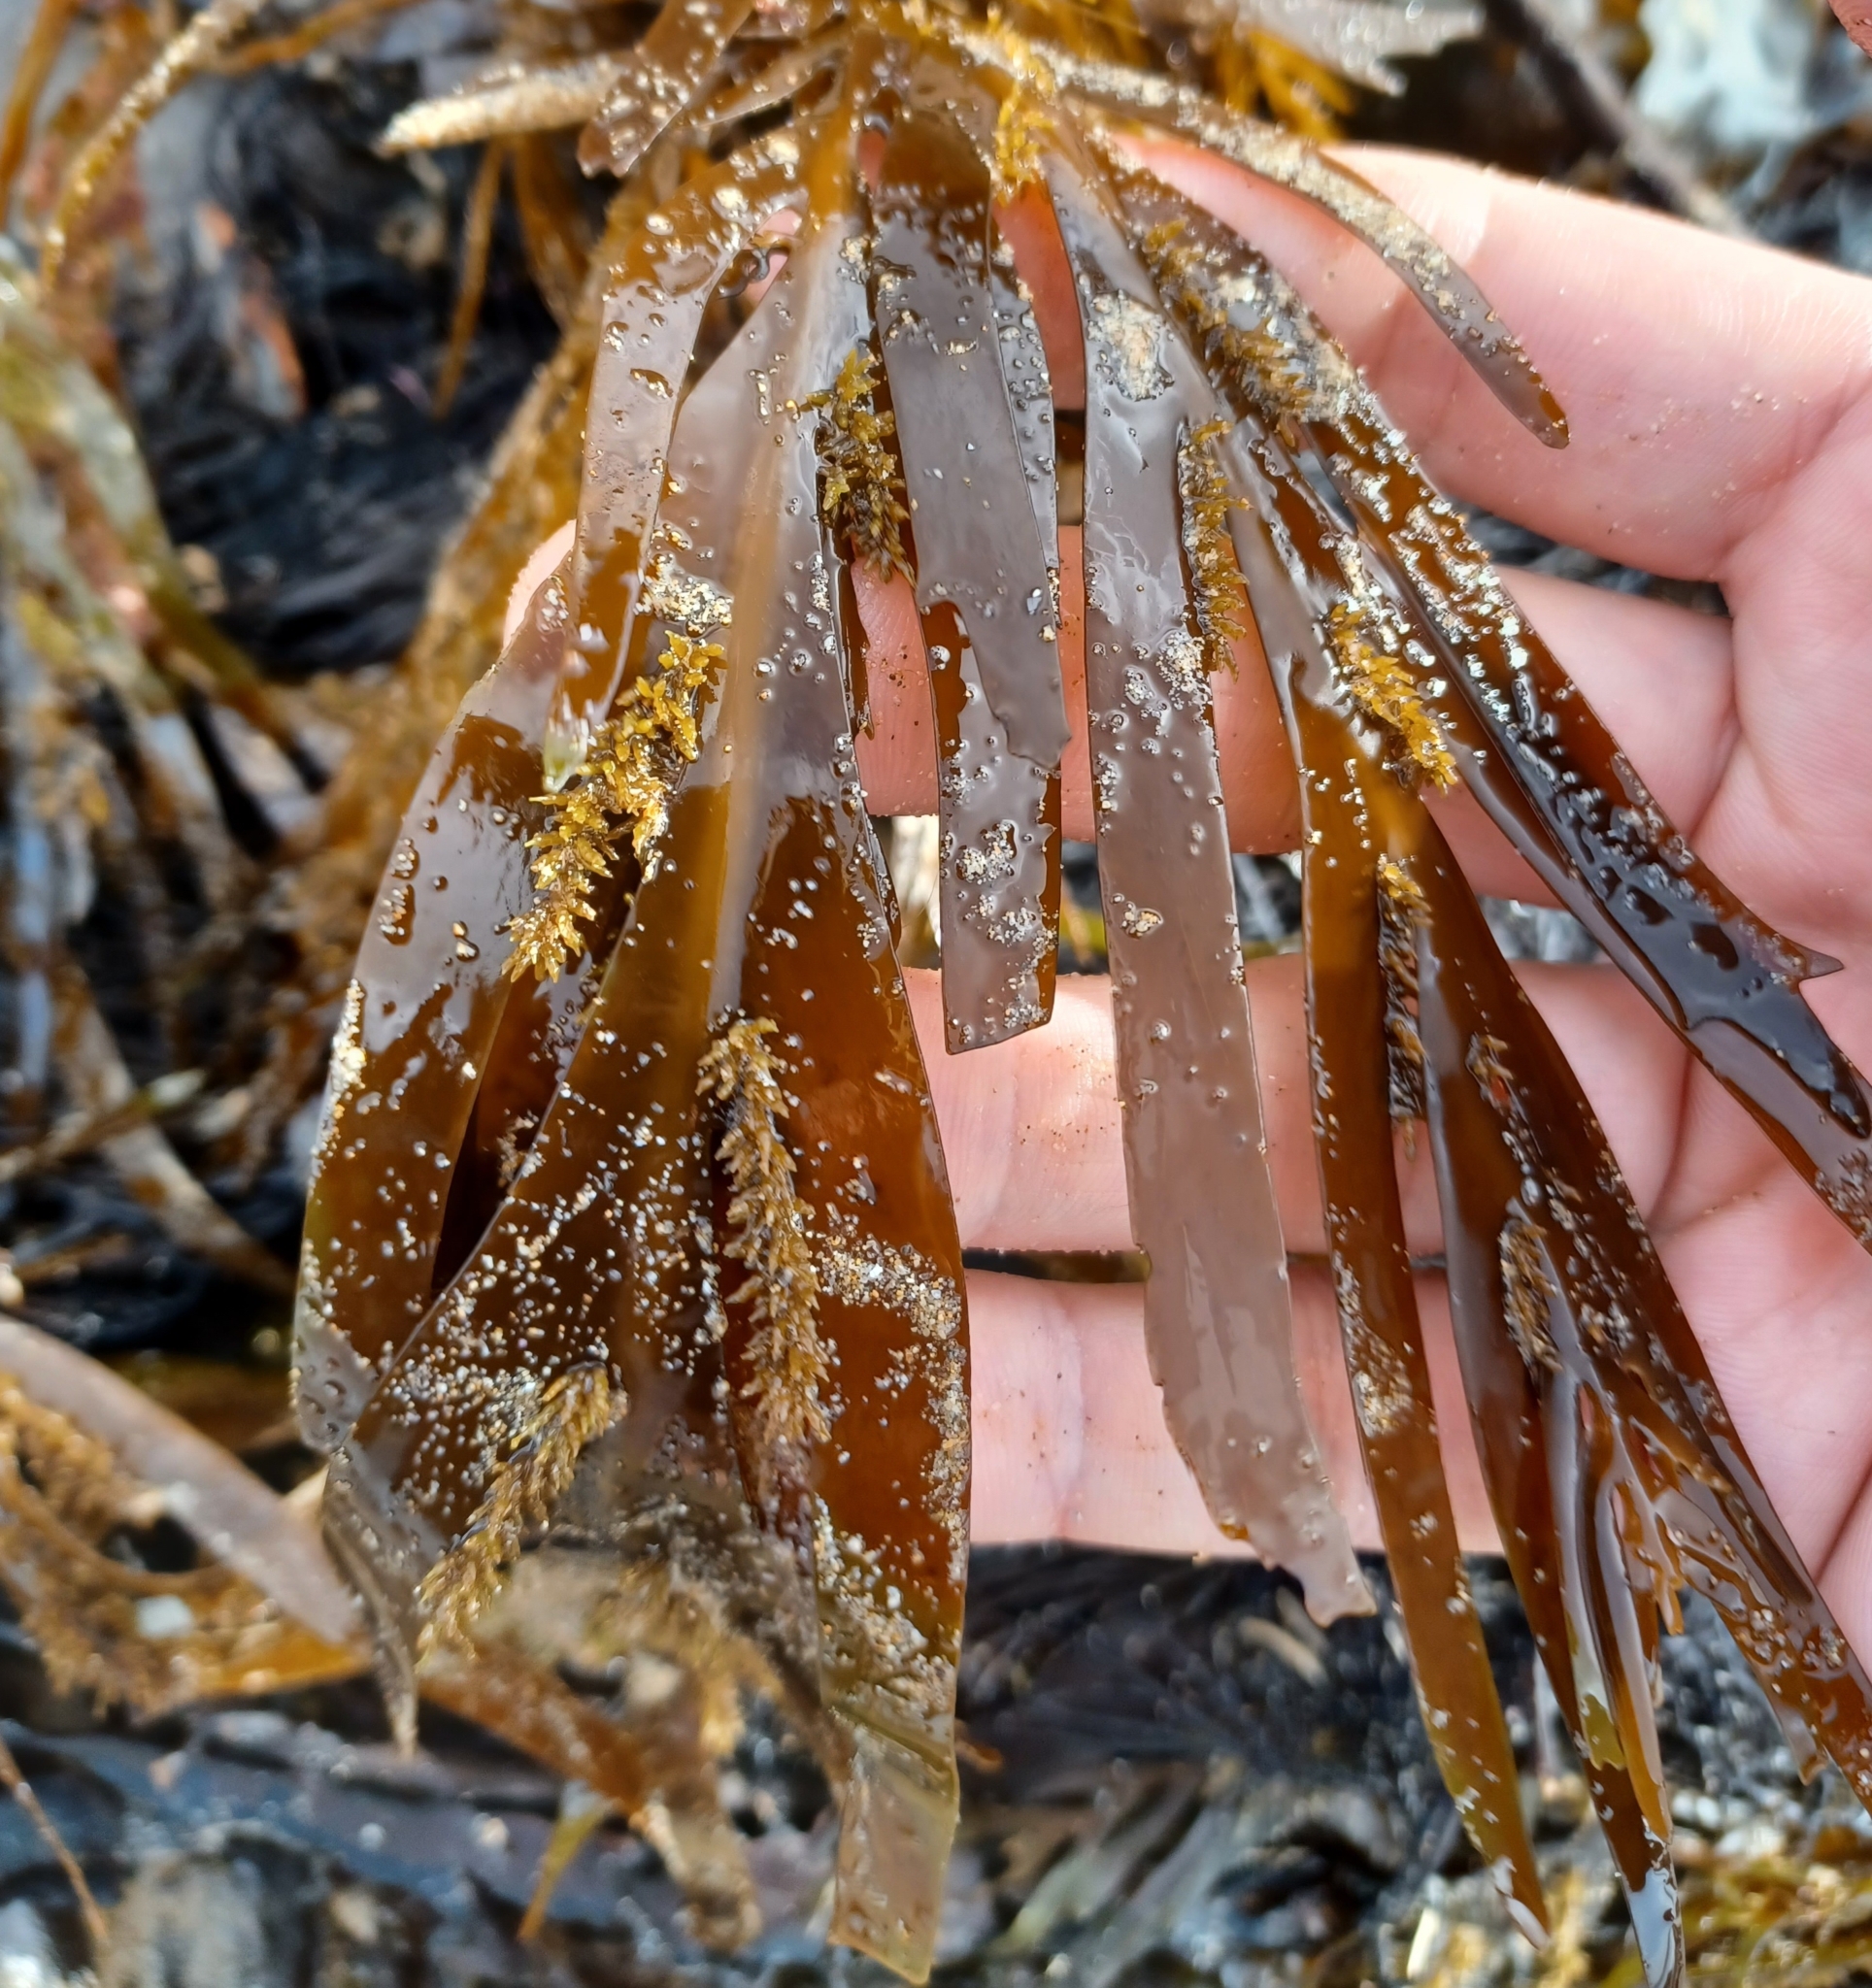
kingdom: Chromista
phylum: Ochrophyta
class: Phaeophyceae
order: Fucales
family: Seirococcaceae
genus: Seirococcus
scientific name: Seirococcus axillaris
